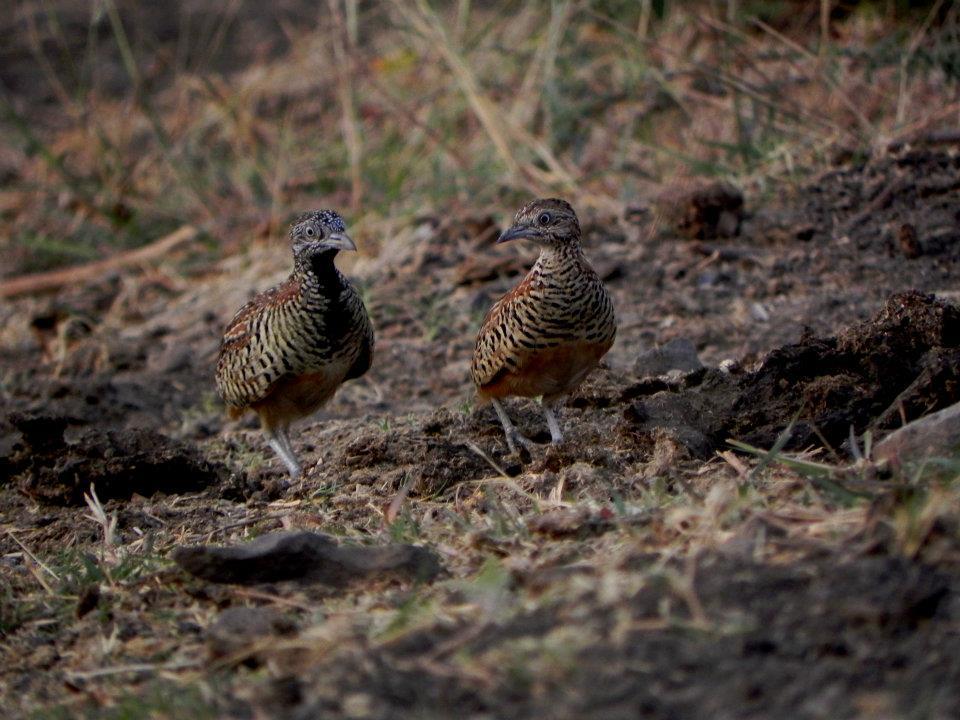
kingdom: Animalia
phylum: Chordata
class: Aves
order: Charadriiformes
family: Turnicidae
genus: Turnix
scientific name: Turnix suscitator
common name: Barred buttonquail
